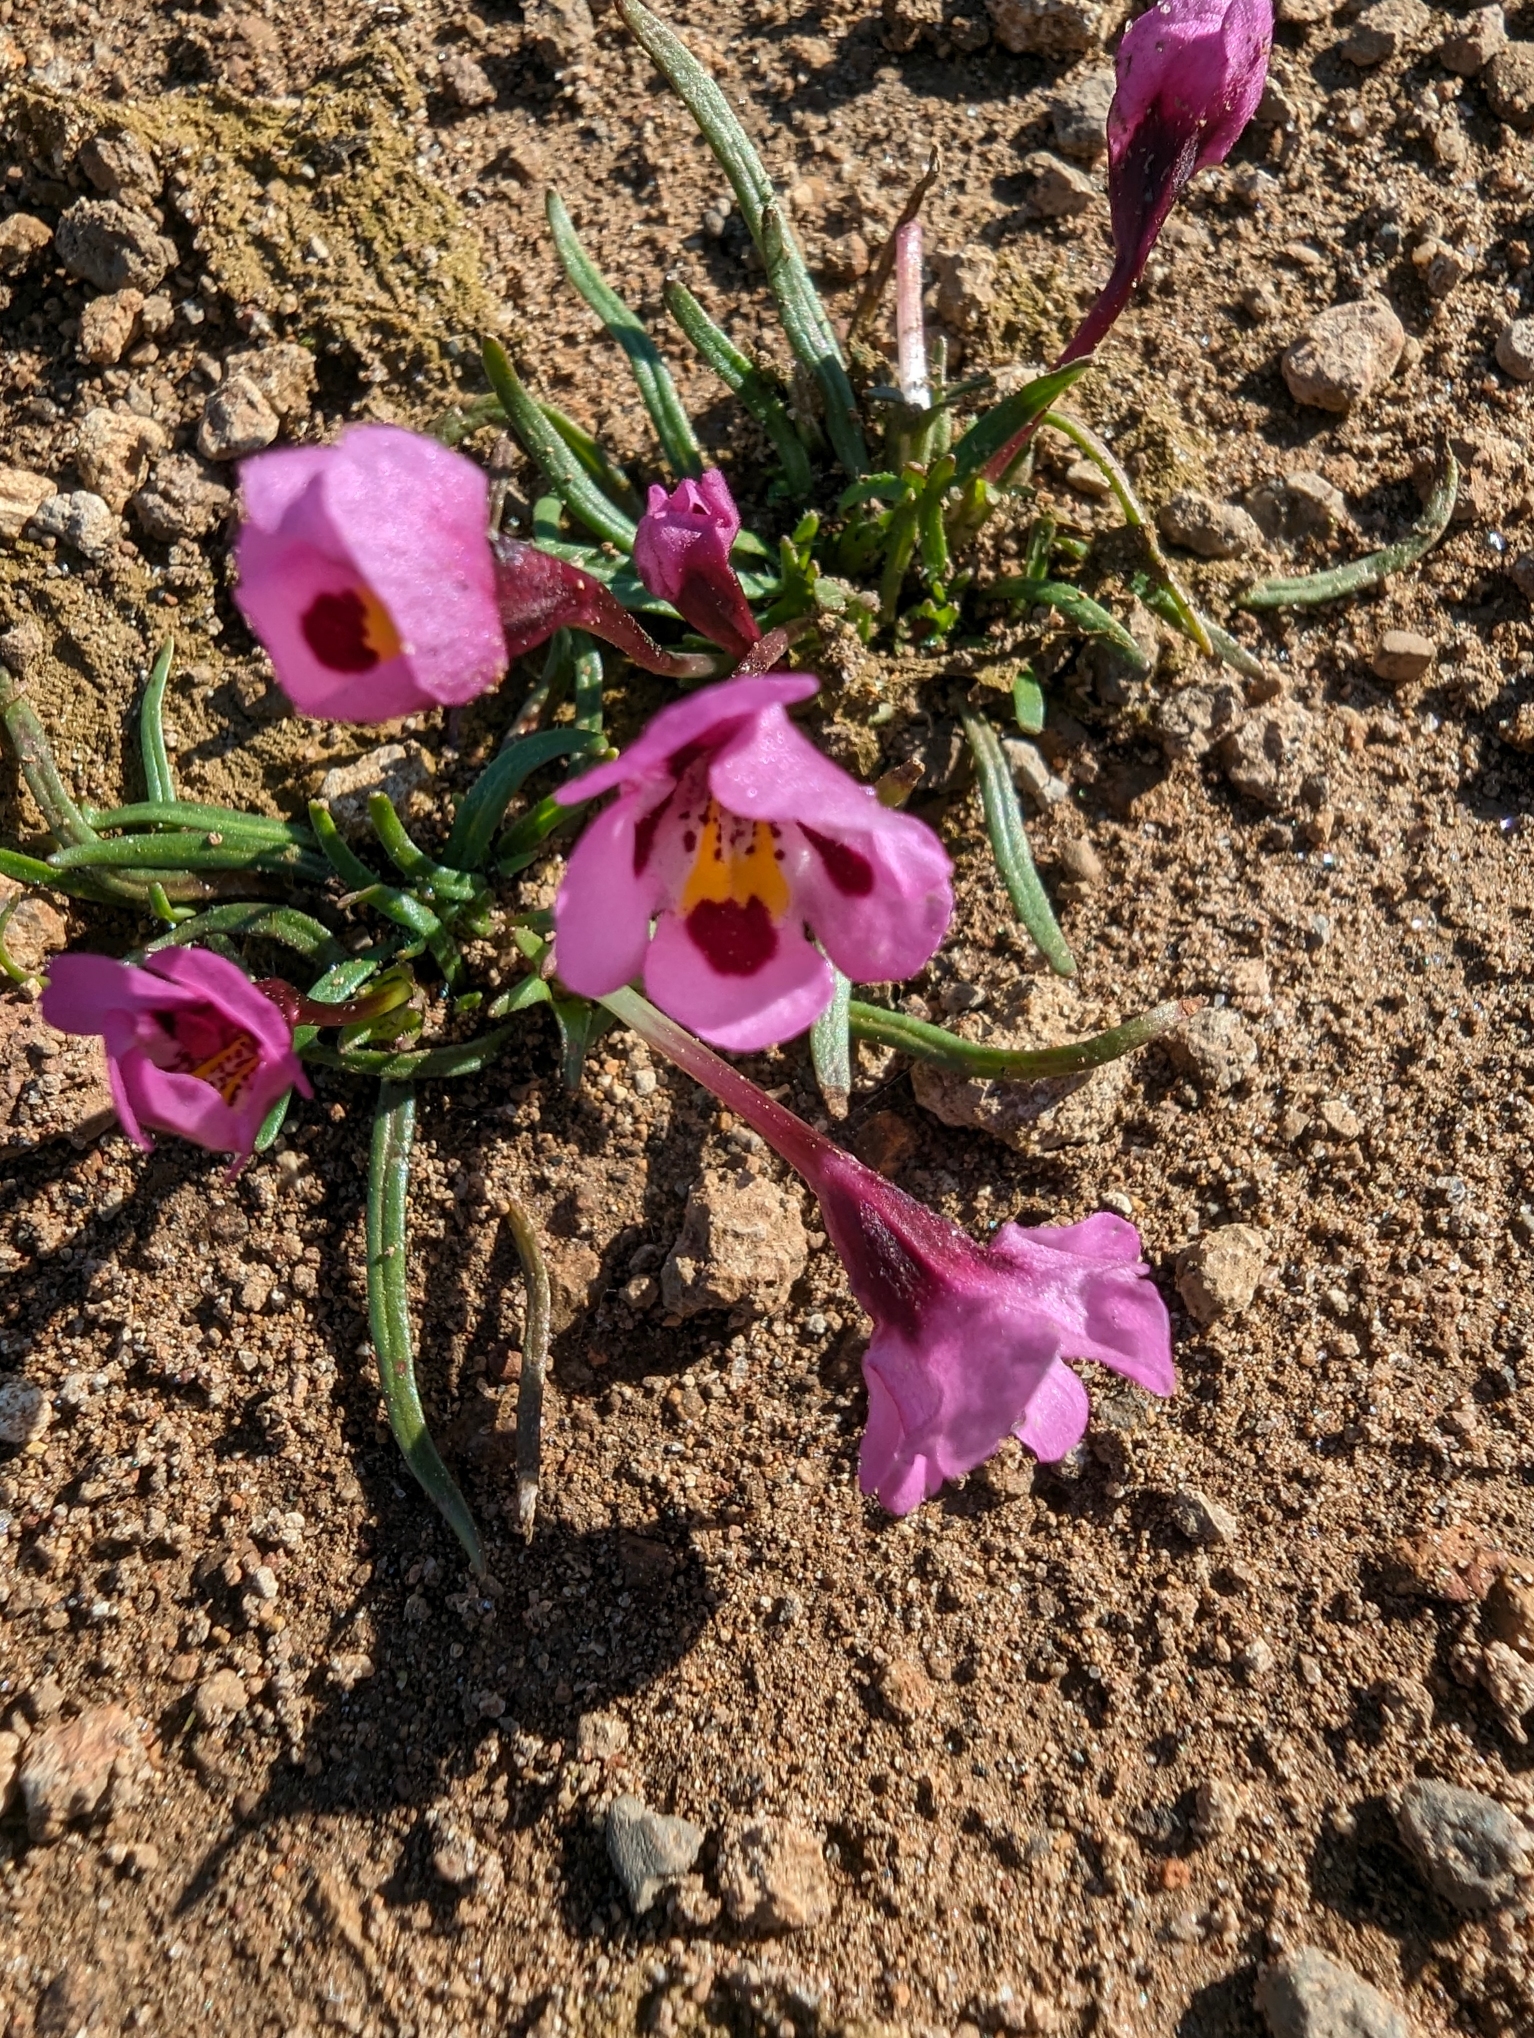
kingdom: Plantae
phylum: Tracheophyta
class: Magnoliopsida
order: Lamiales
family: Phrymaceae
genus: Diplacus
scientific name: Diplacus angustatus
